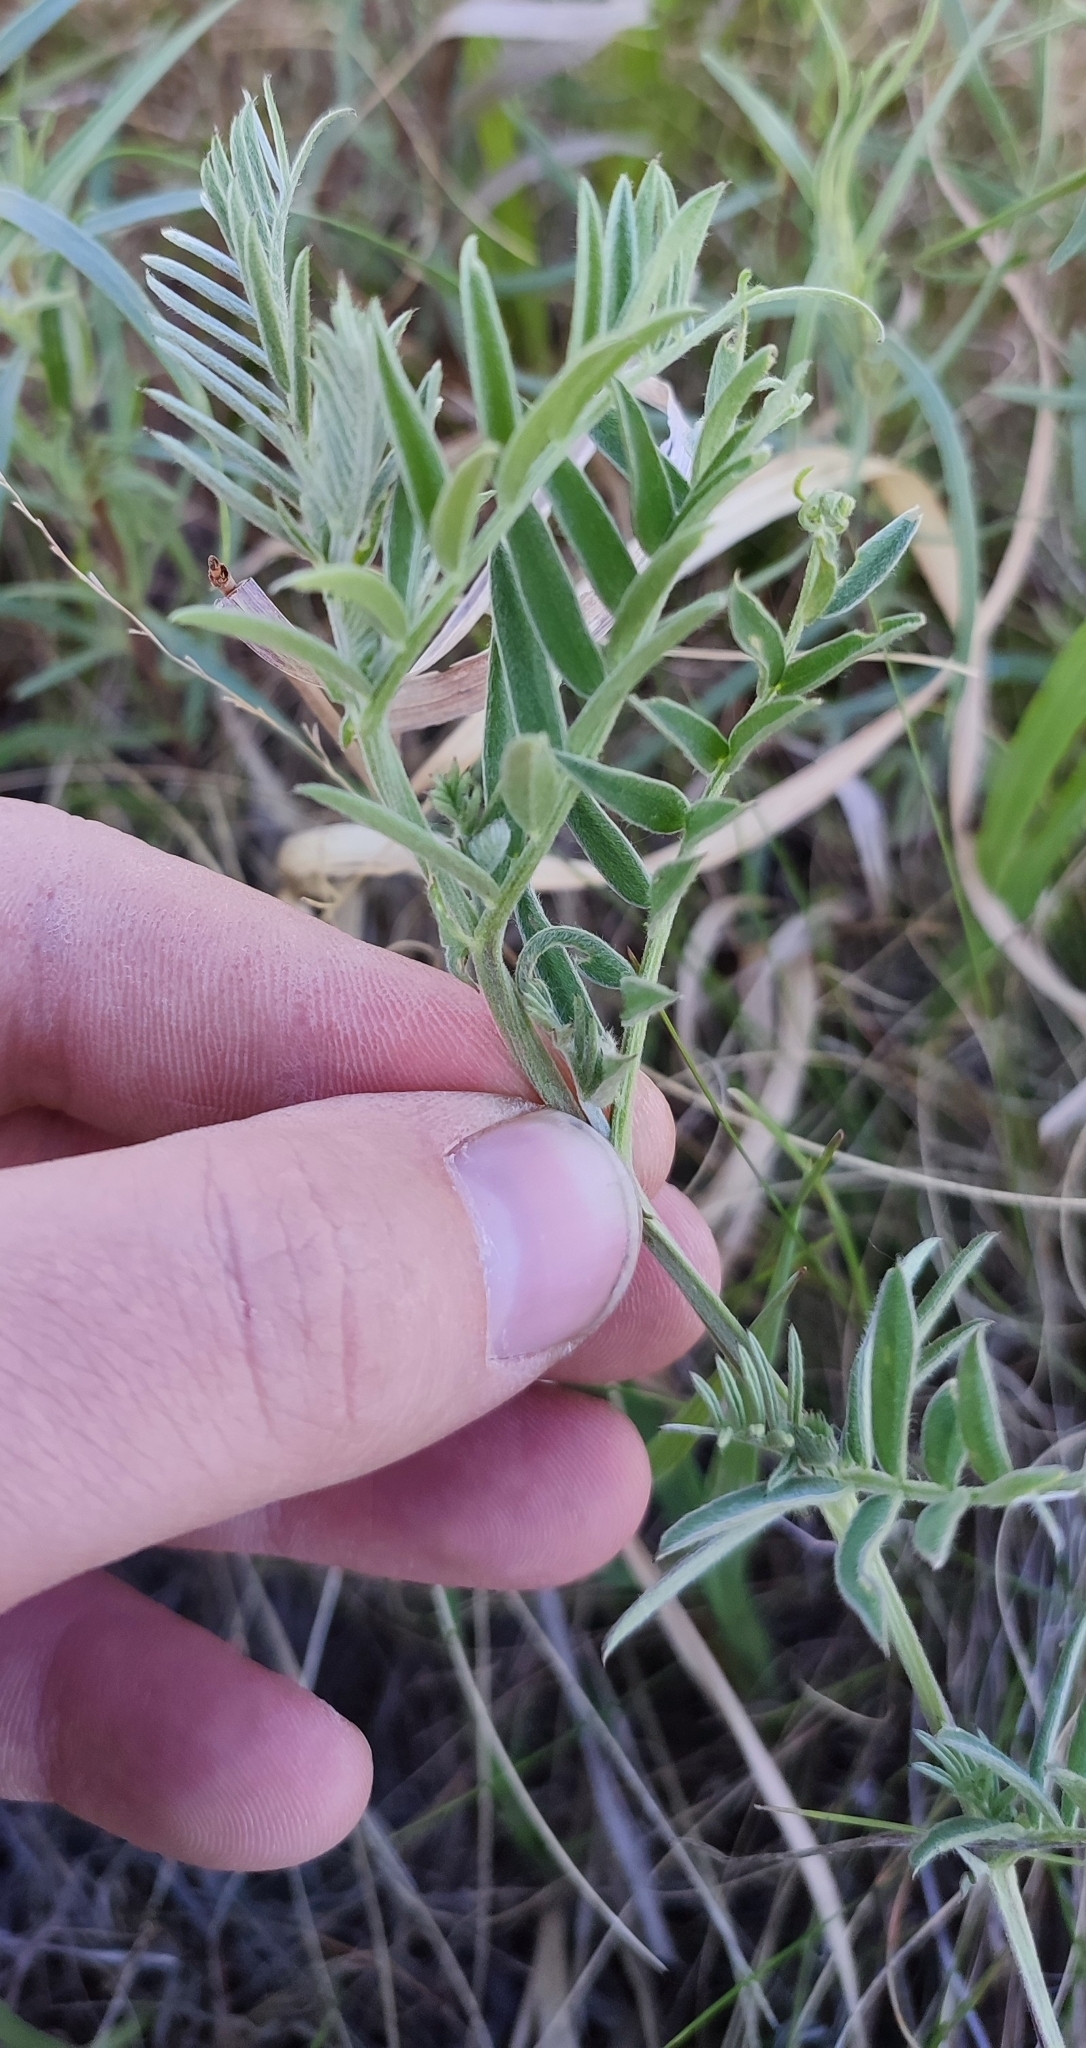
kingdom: Plantae
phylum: Tracheophyta
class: Magnoliopsida
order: Fabales
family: Fabaceae
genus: Vicia
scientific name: Vicia cracca
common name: Bird vetch
